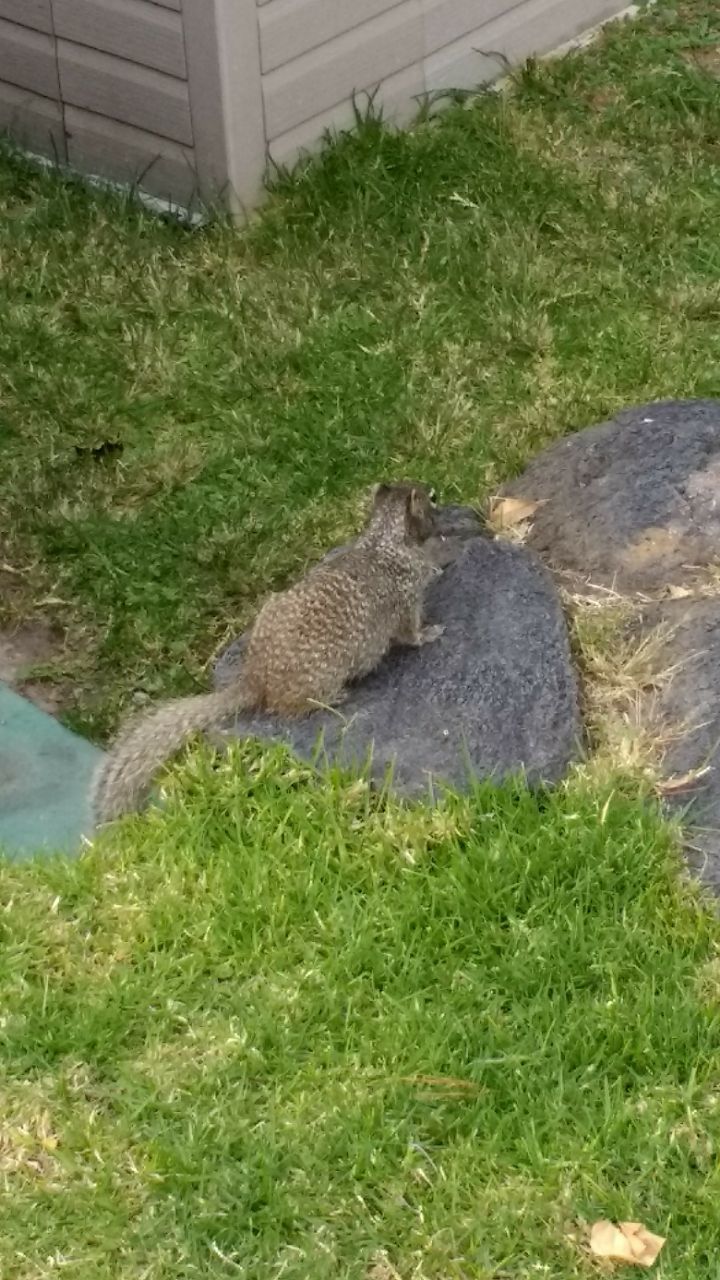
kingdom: Animalia
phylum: Chordata
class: Mammalia
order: Rodentia
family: Sciuridae
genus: Otospermophilus
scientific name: Otospermophilus variegatus
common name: Rock squirrel
